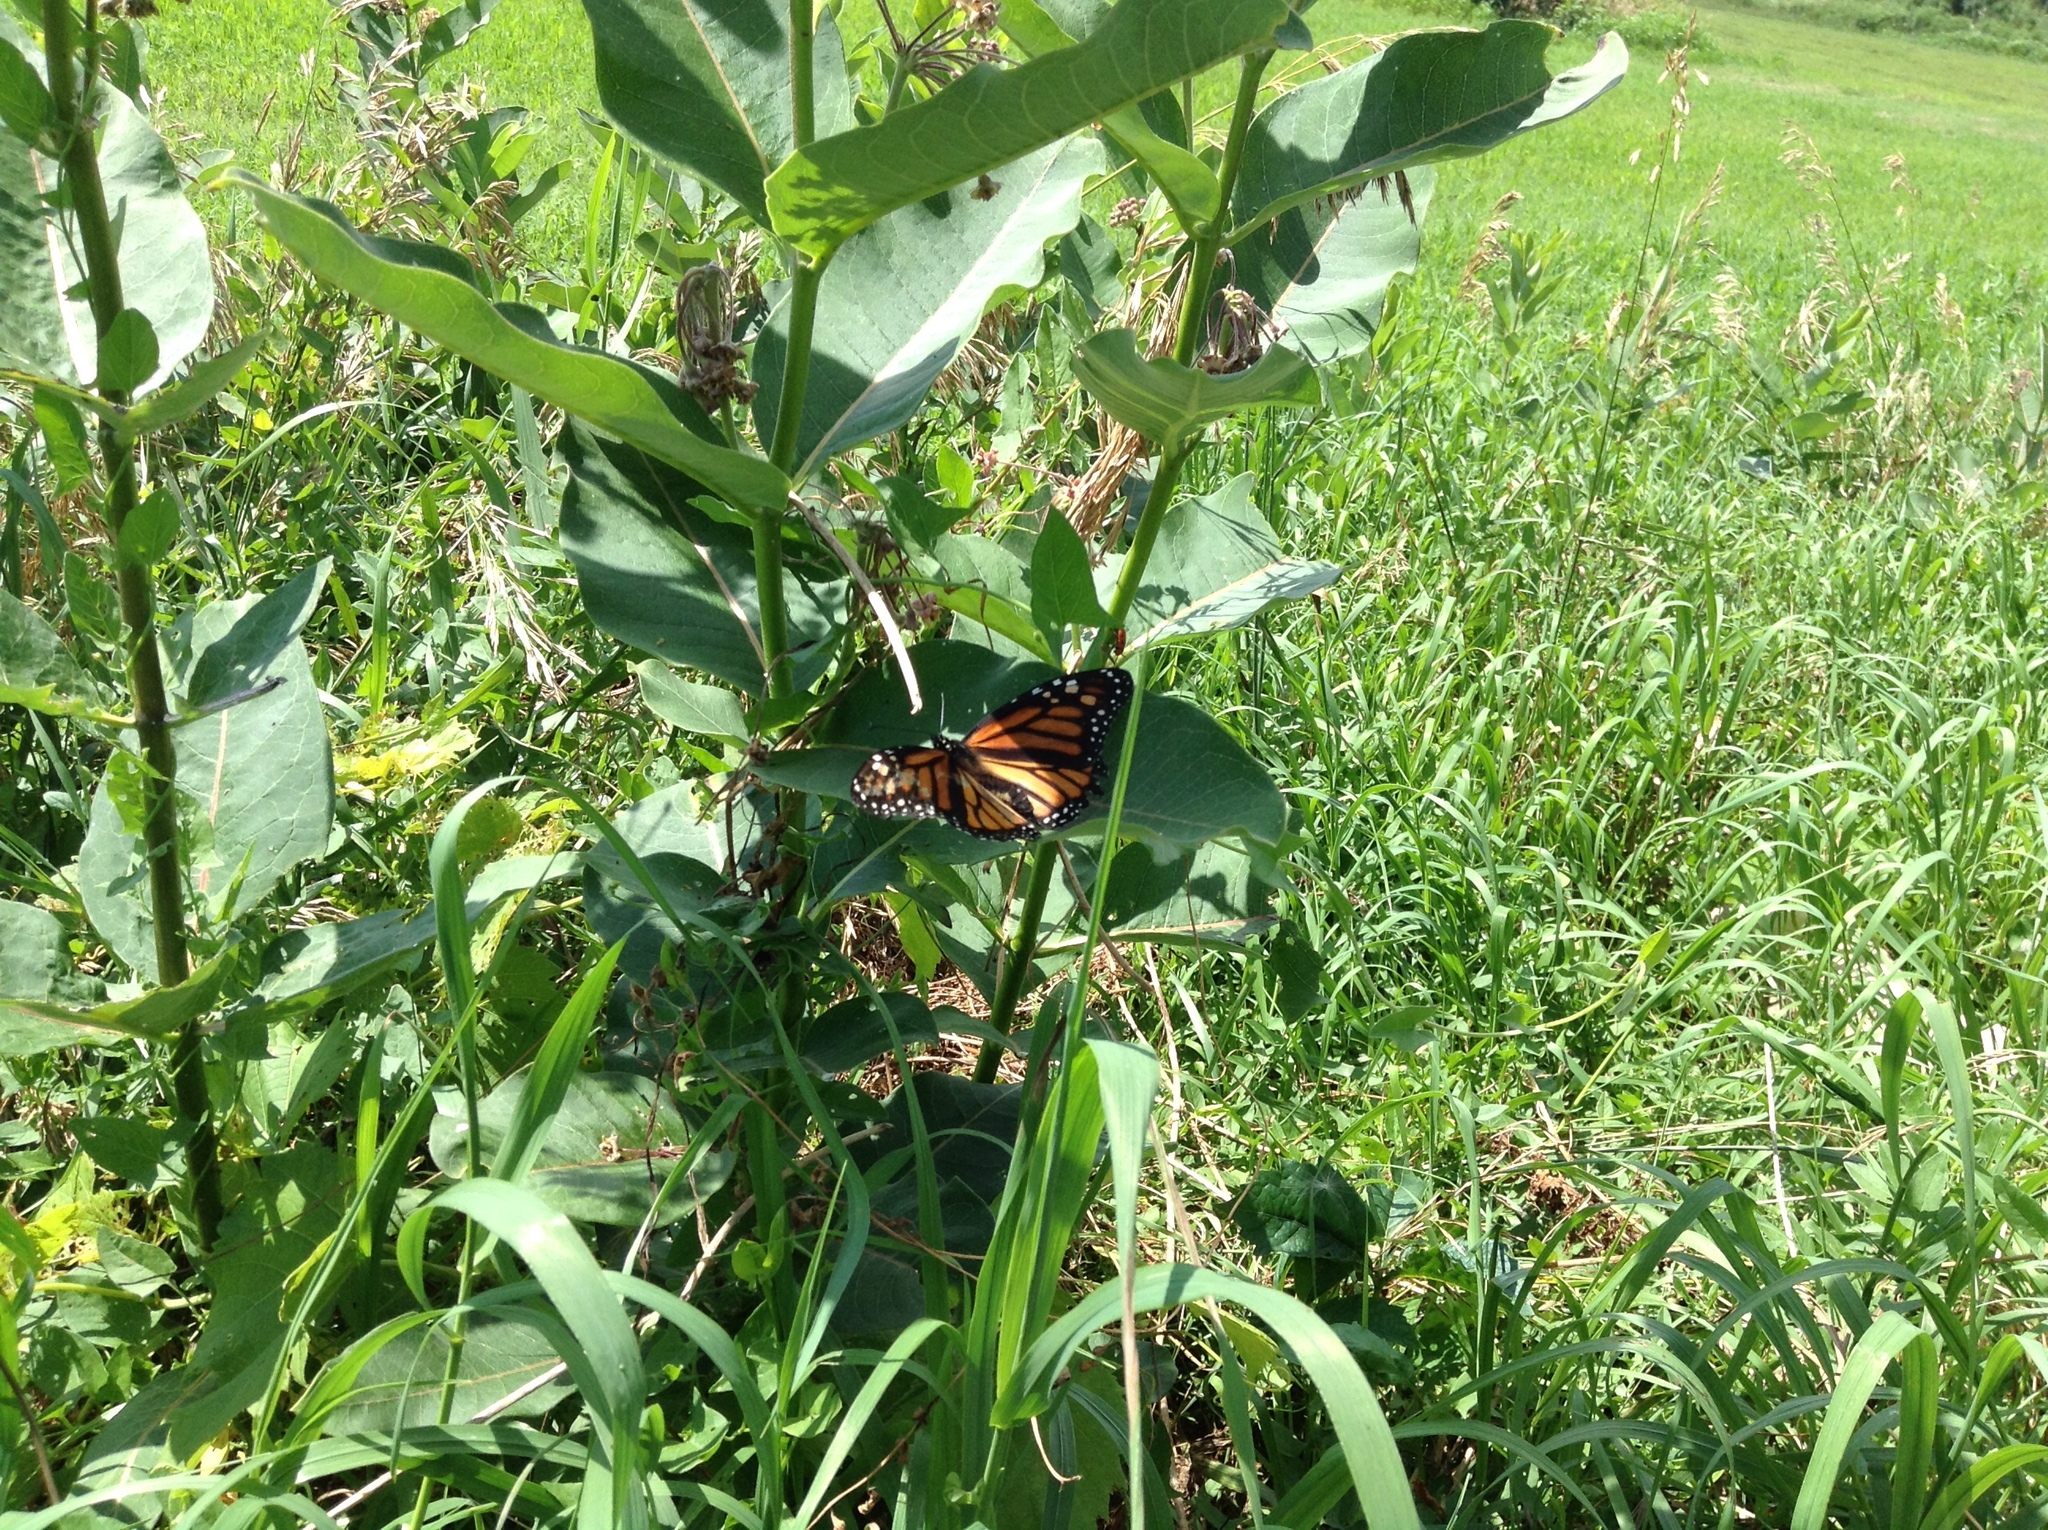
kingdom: Animalia
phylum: Arthropoda
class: Insecta
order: Lepidoptera
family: Nymphalidae
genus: Danaus
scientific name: Danaus plexippus
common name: Monarch
